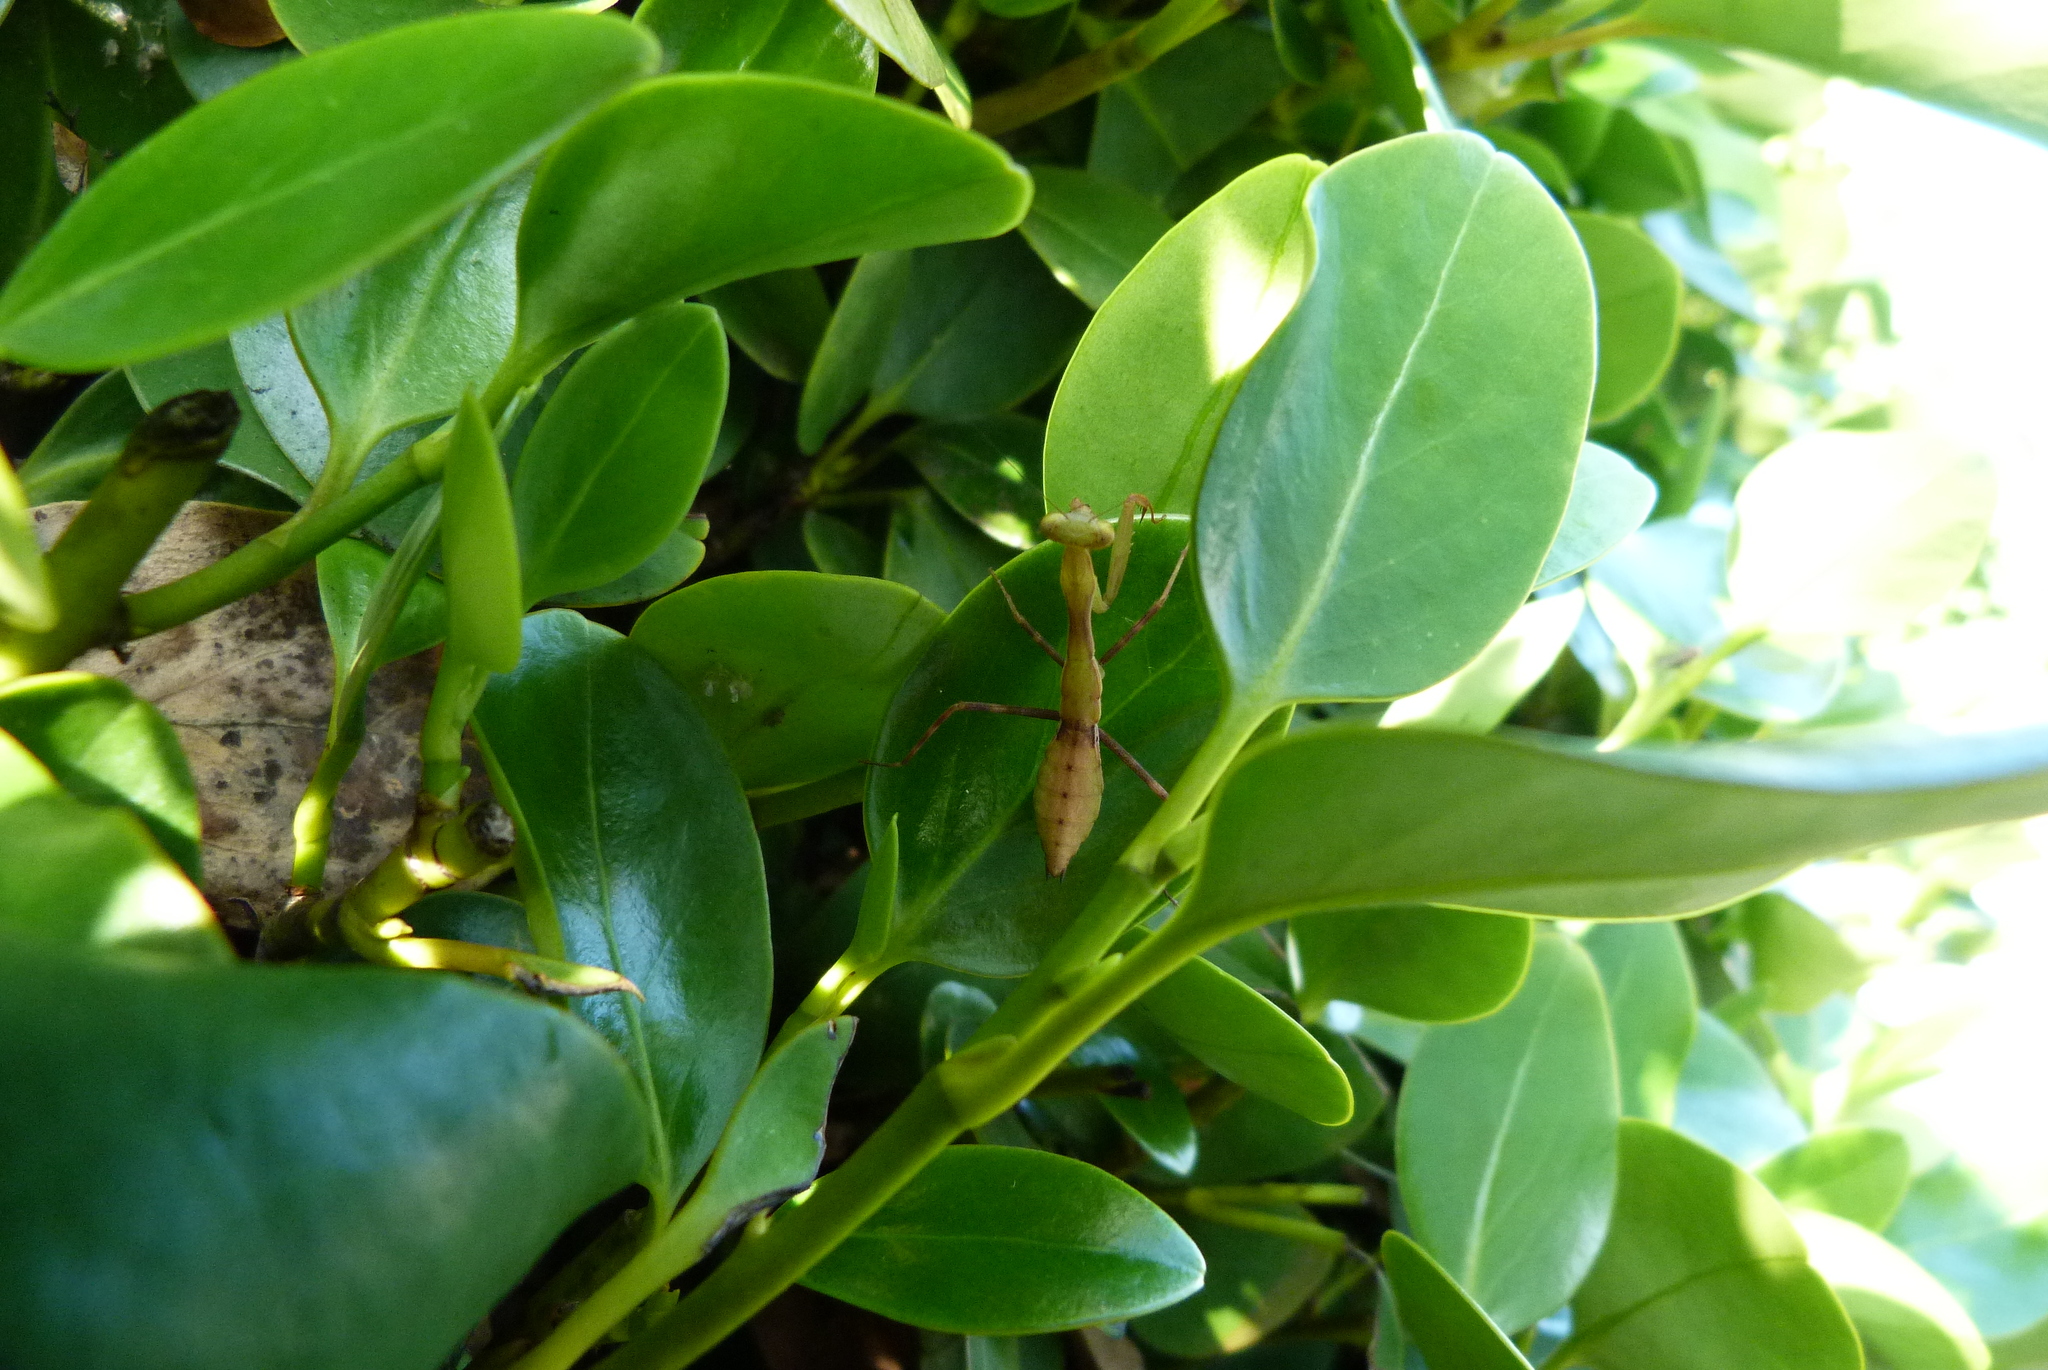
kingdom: Animalia
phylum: Arthropoda
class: Insecta
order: Mantodea
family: Miomantidae
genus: Miomantis
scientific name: Miomantis caffra
